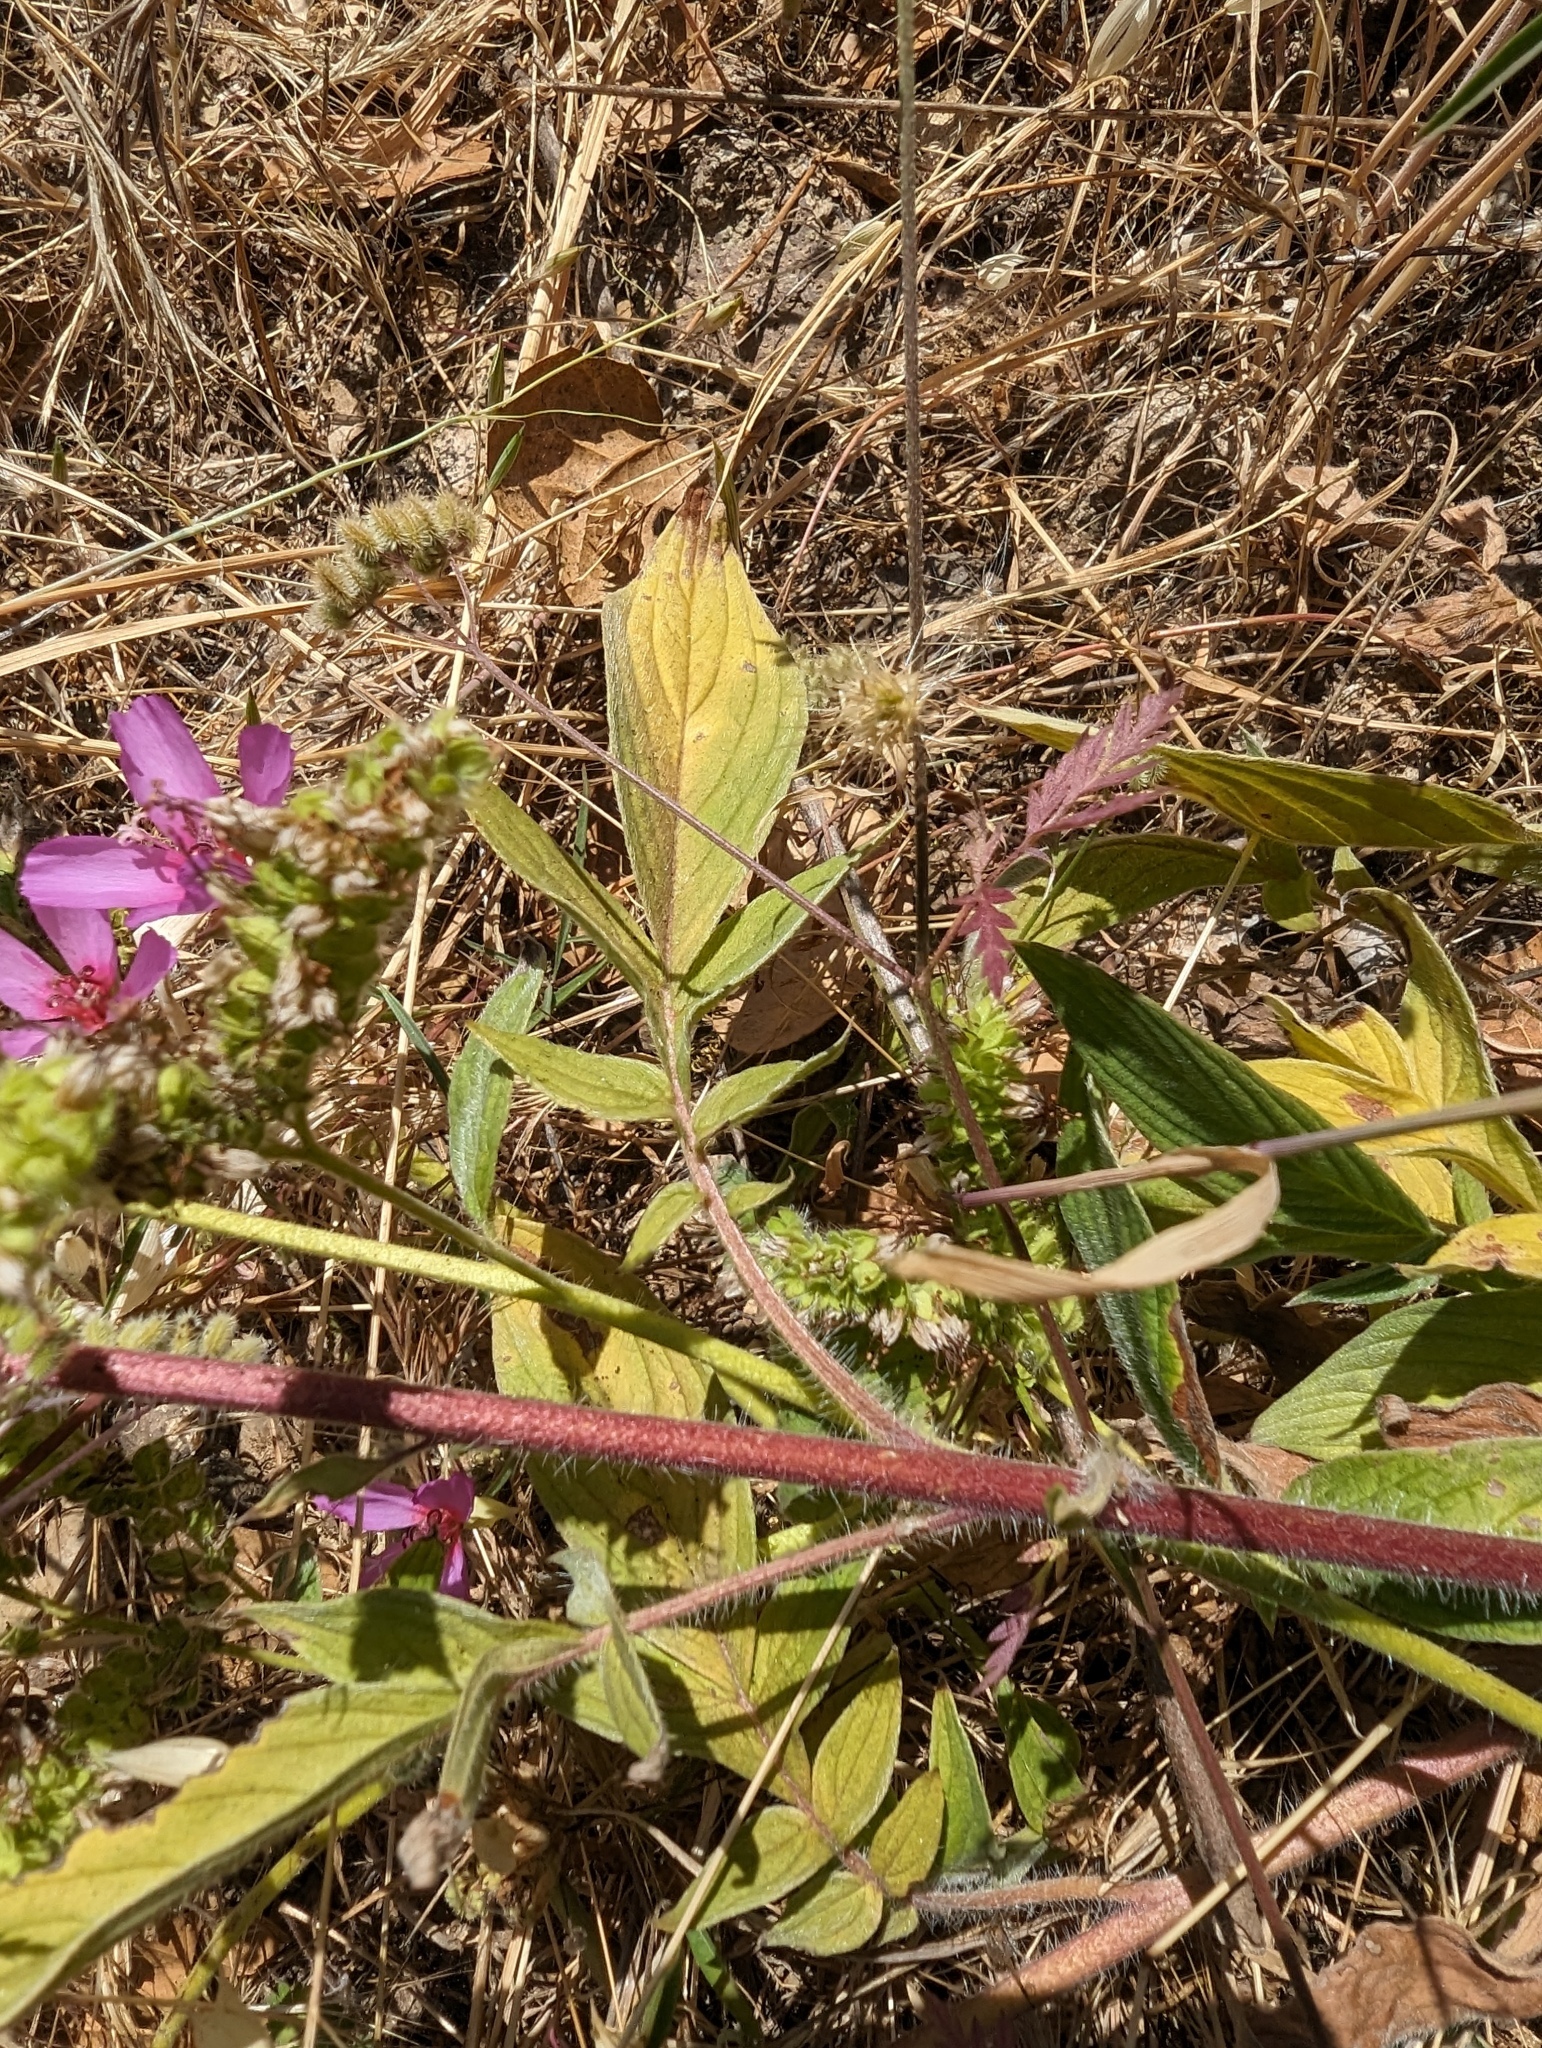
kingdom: Plantae
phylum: Tracheophyta
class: Magnoliopsida
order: Boraginales
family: Hydrophyllaceae
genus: Phacelia
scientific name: Phacelia imbricata
